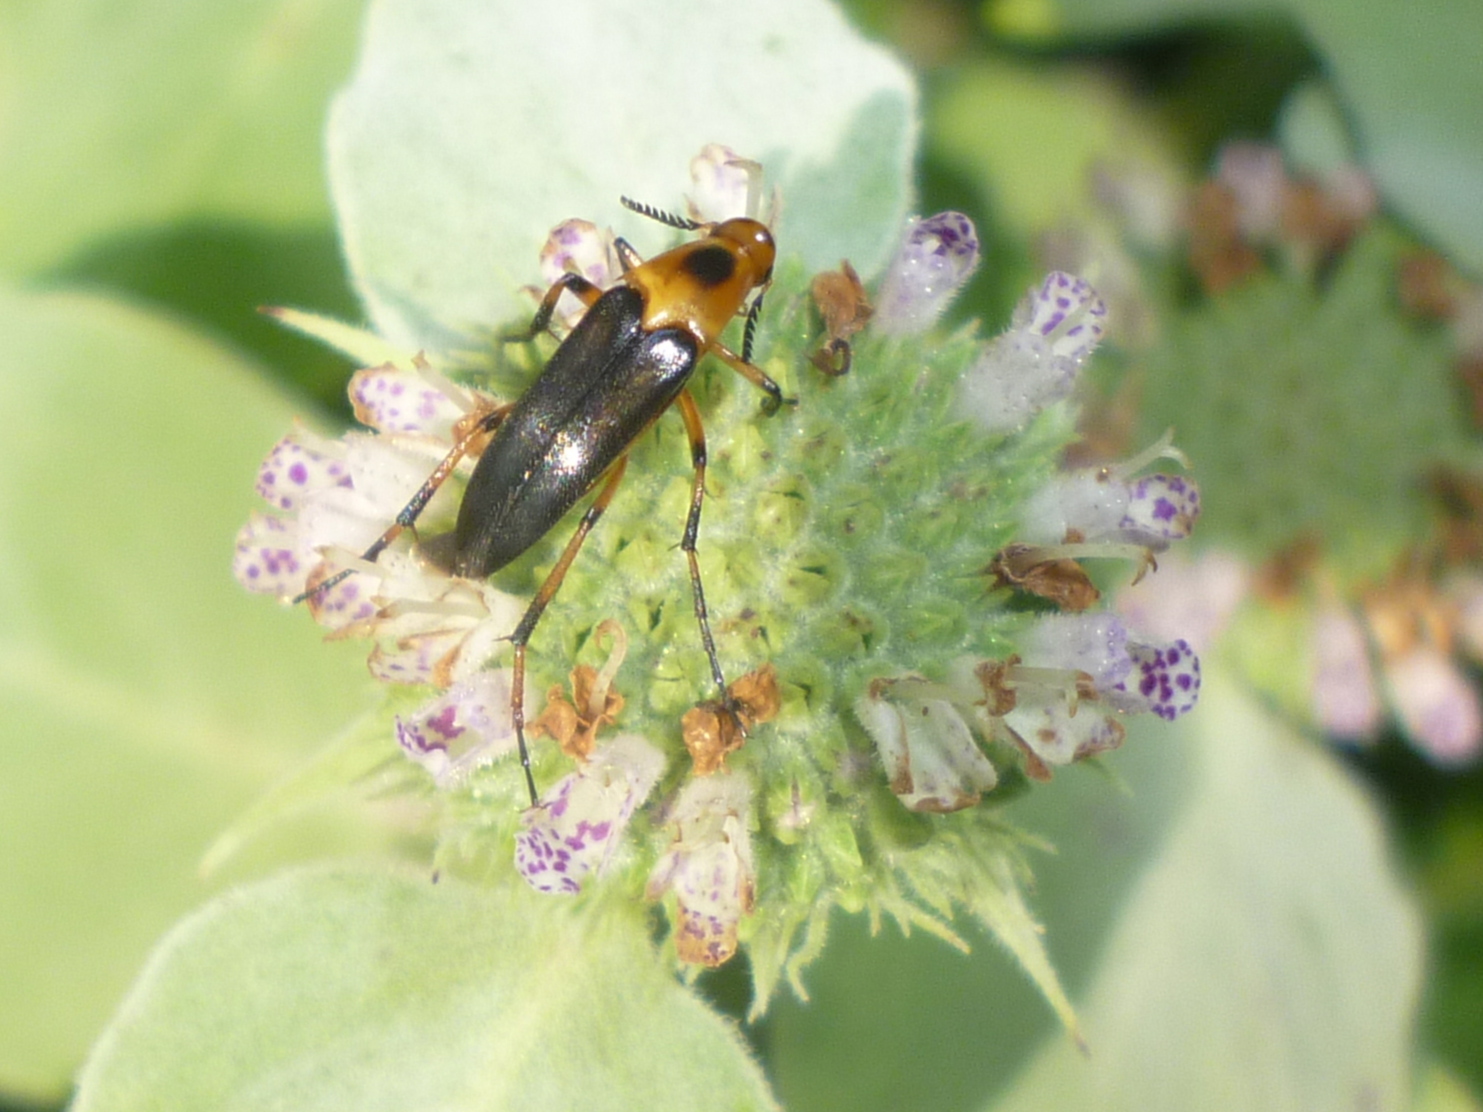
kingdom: Animalia
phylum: Arthropoda
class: Insecta
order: Coleoptera
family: Ripiphoridae
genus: Macrosiagon
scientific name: Macrosiagon limbatum
